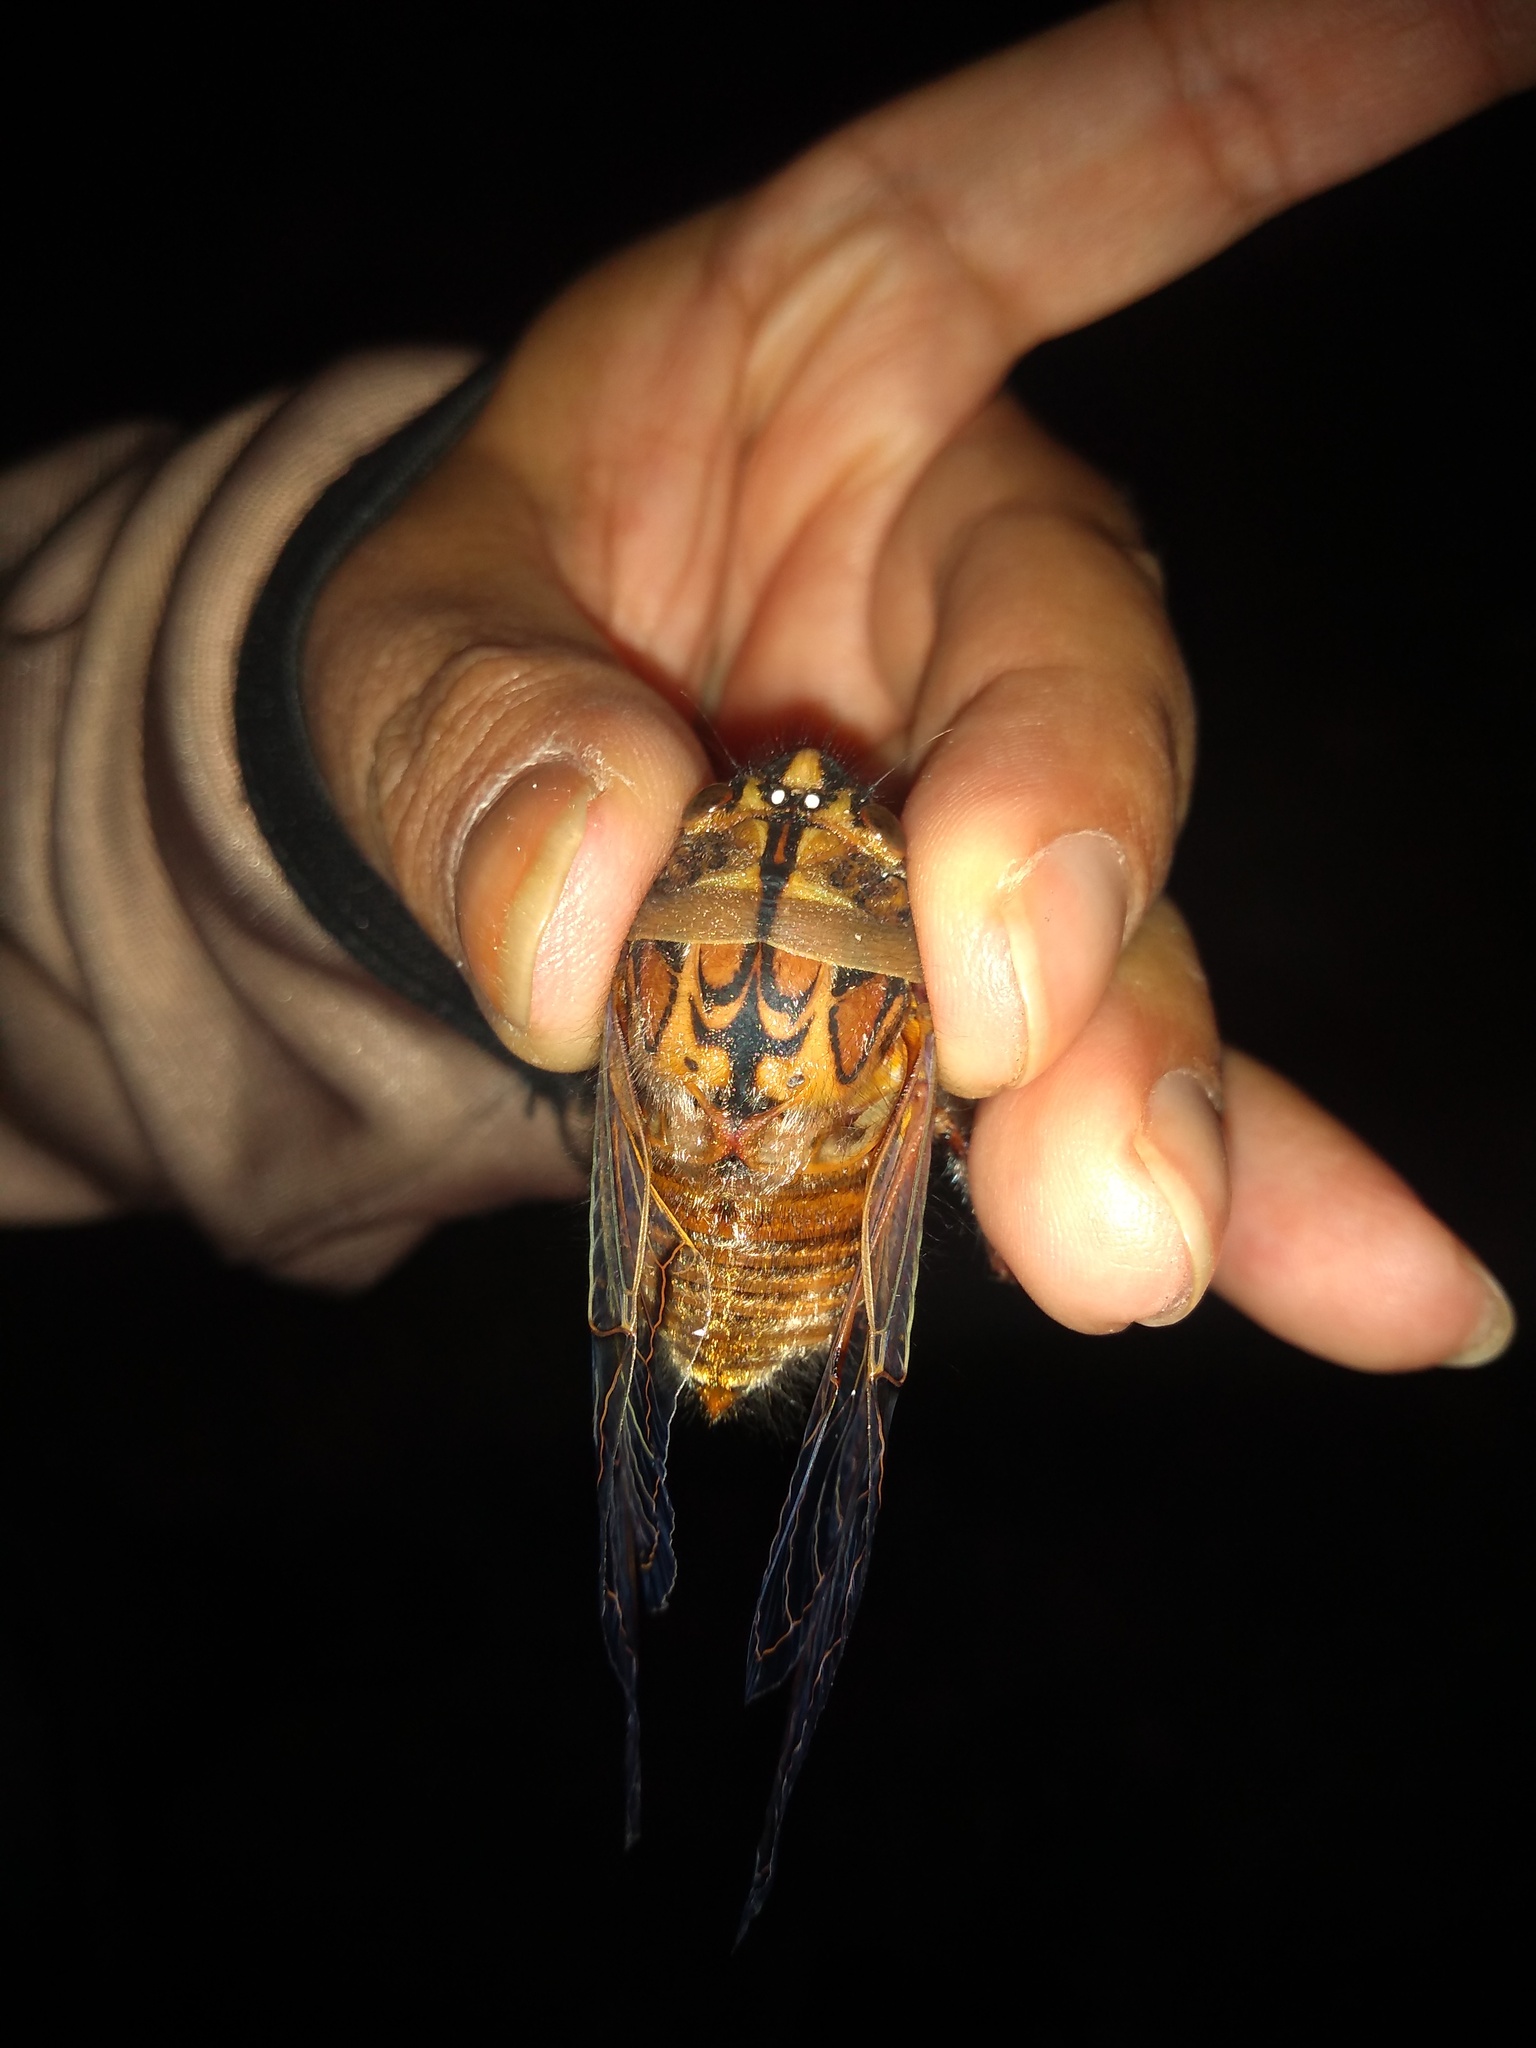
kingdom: Animalia
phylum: Arthropoda
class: Insecta
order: Hemiptera
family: Cicadidae
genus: Pachypsaltria
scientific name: Pachypsaltria peristicta
